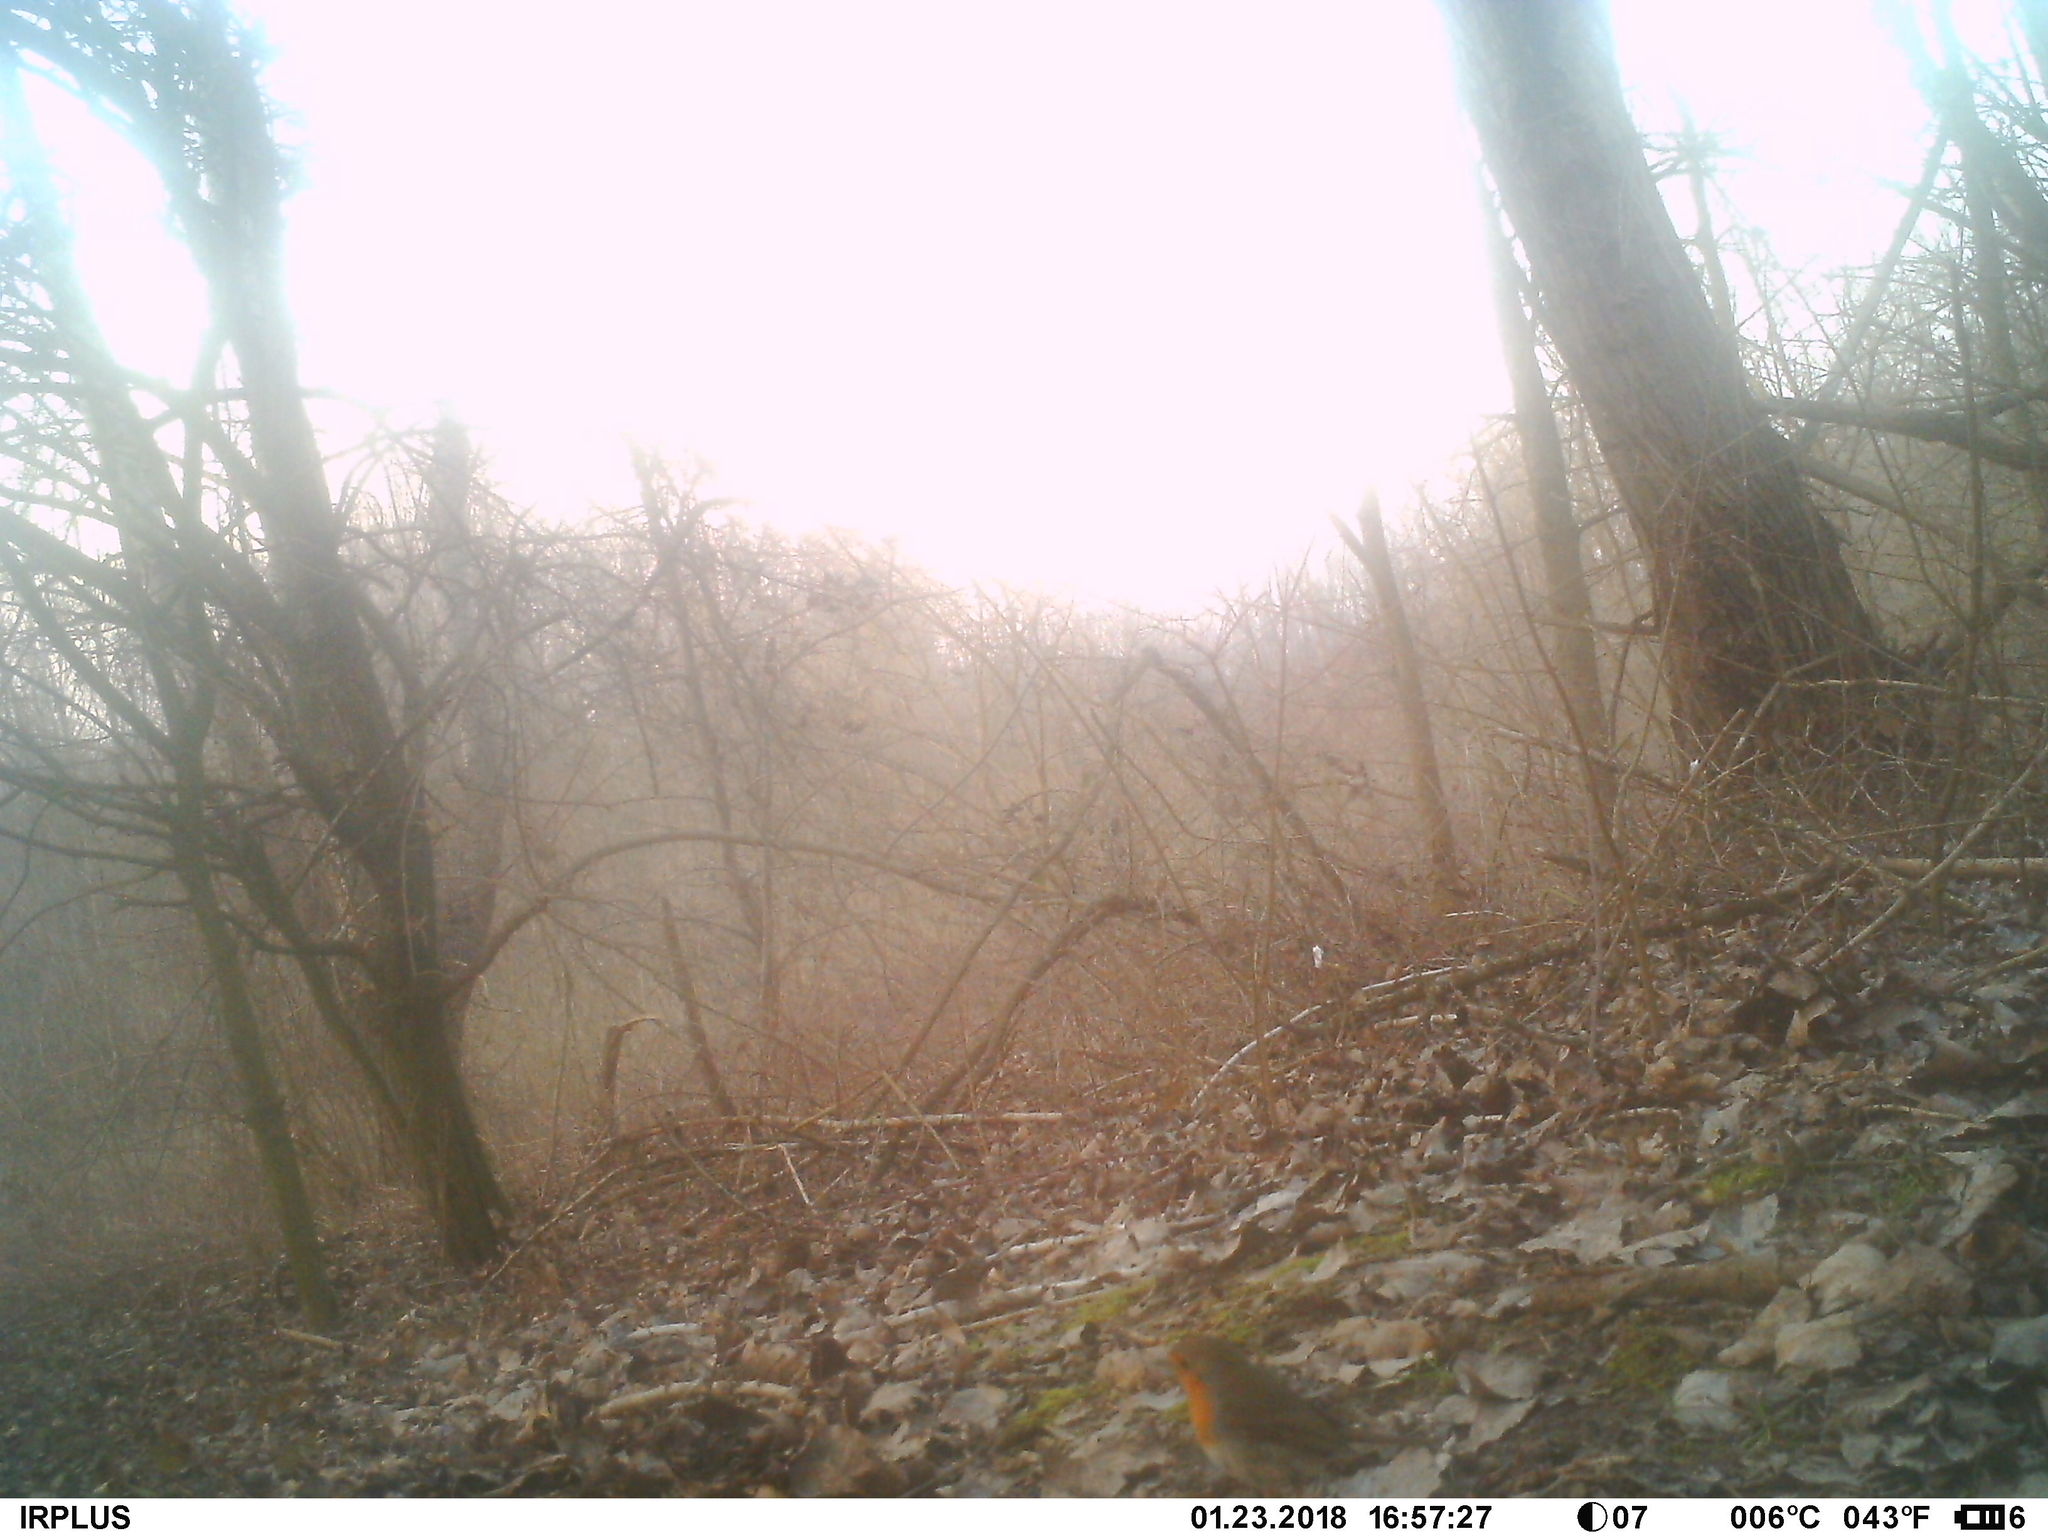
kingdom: Animalia
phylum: Chordata
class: Aves
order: Passeriformes
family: Muscicapidae
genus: Erithacus
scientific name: Erithacus rubecula
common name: European robin
